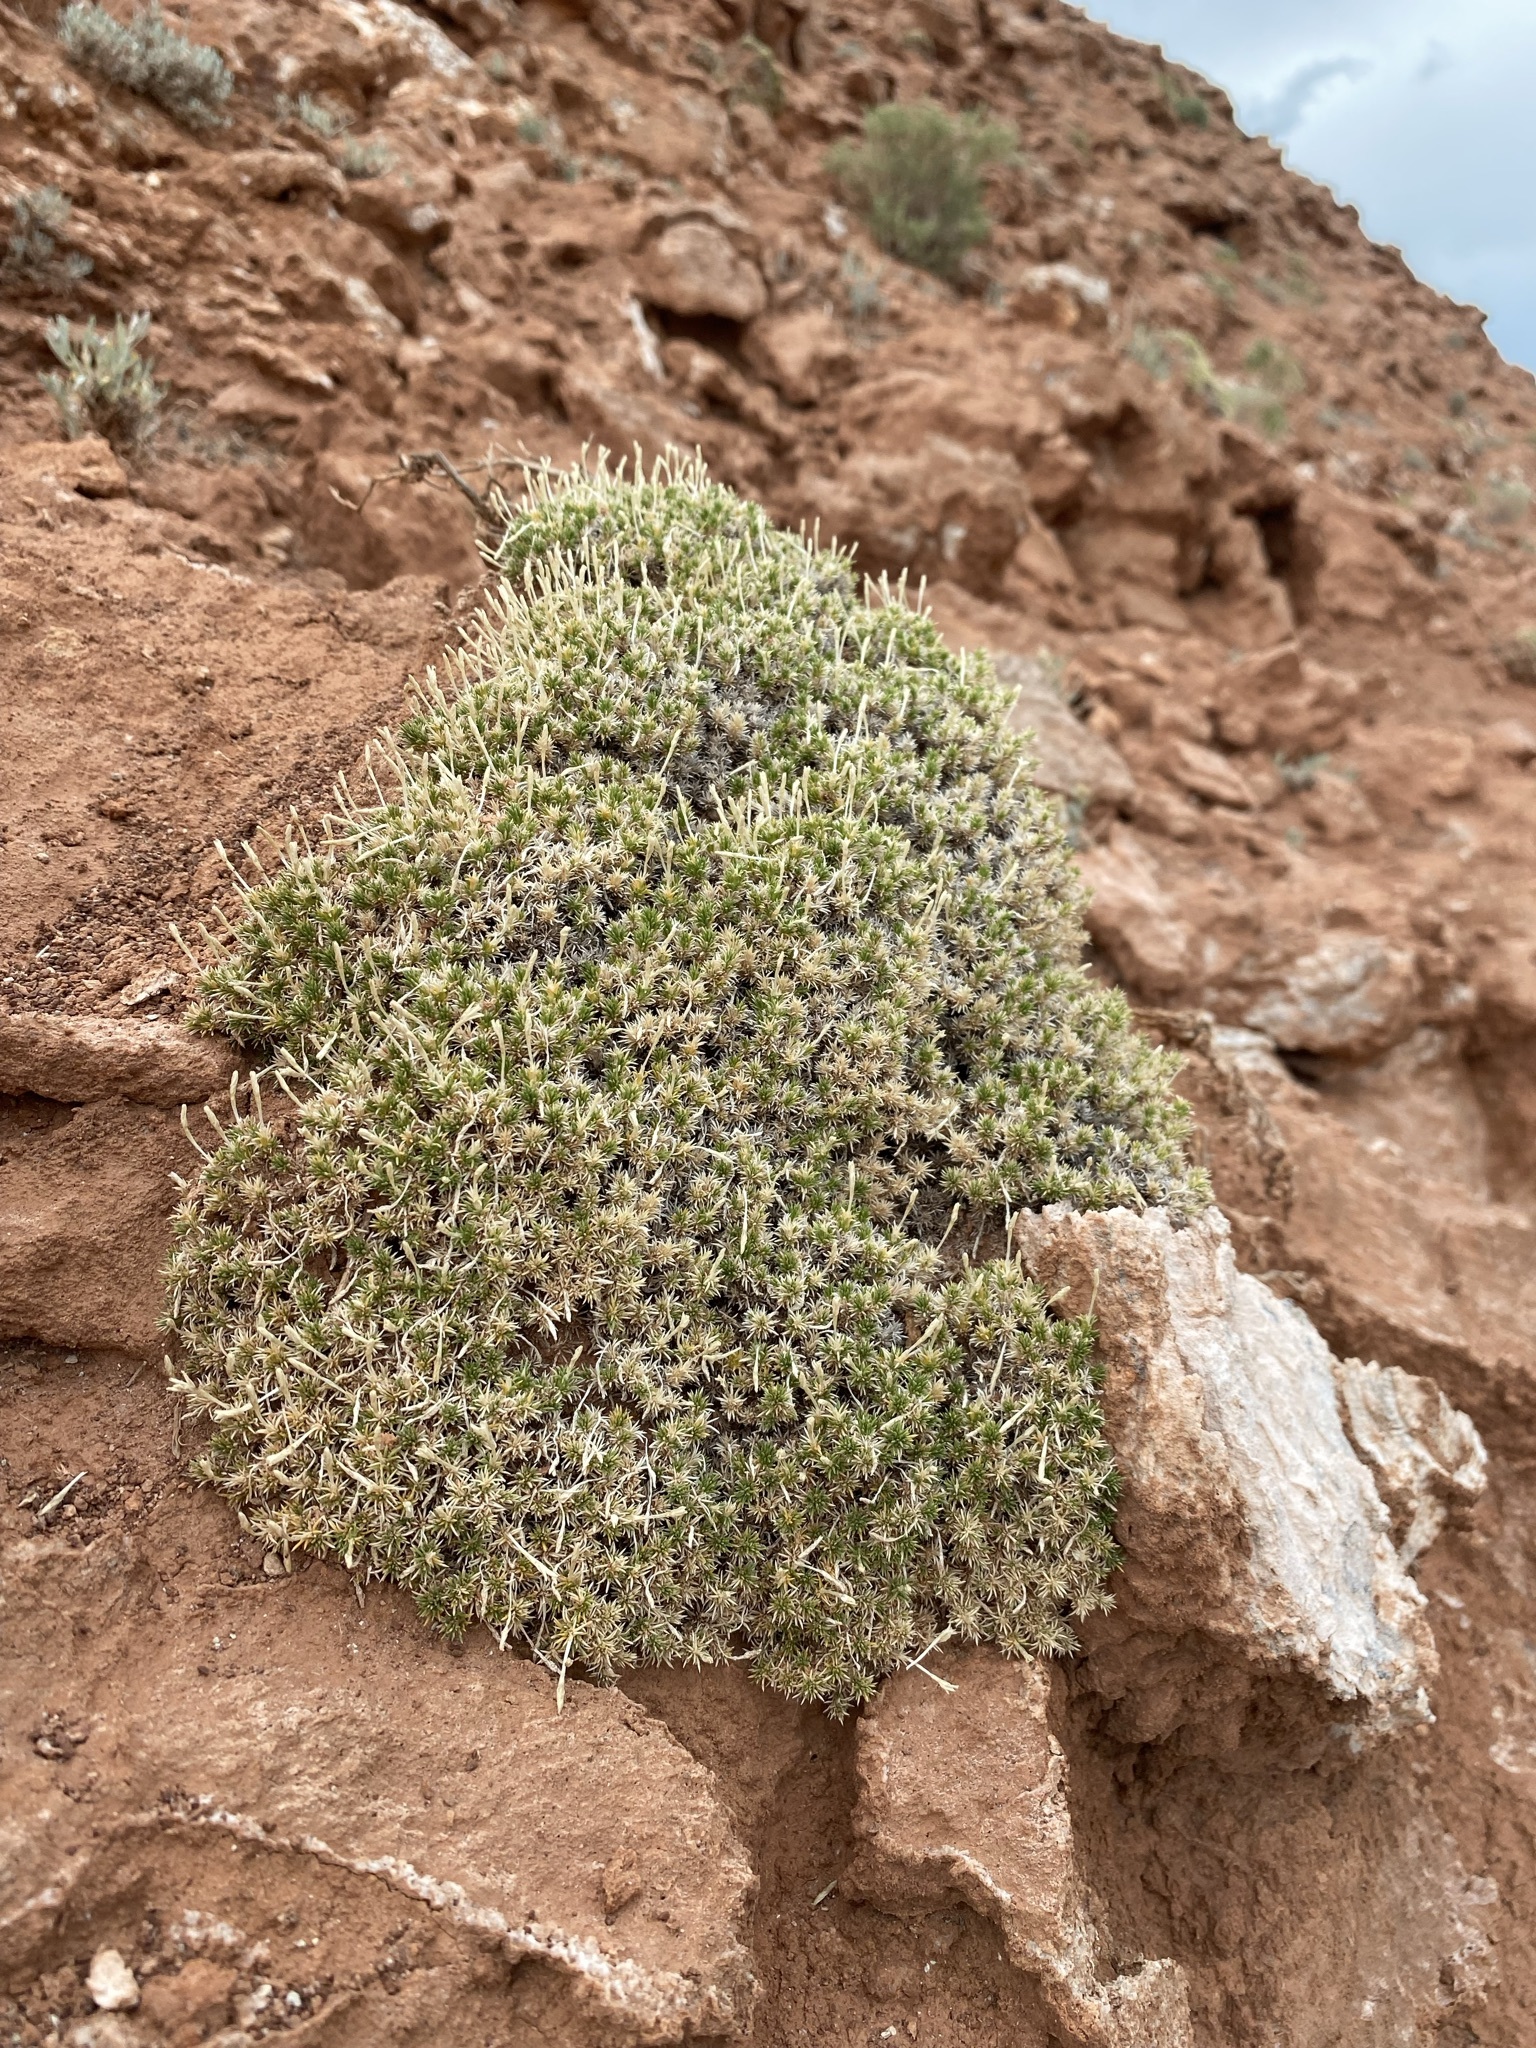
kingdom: Plantae
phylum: Tracheophyta
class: Magnoliopsida
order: Ericales
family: Polemoniaceae
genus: Linanthus
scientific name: Linanthus caespitosus
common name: Mat prickly phlox
